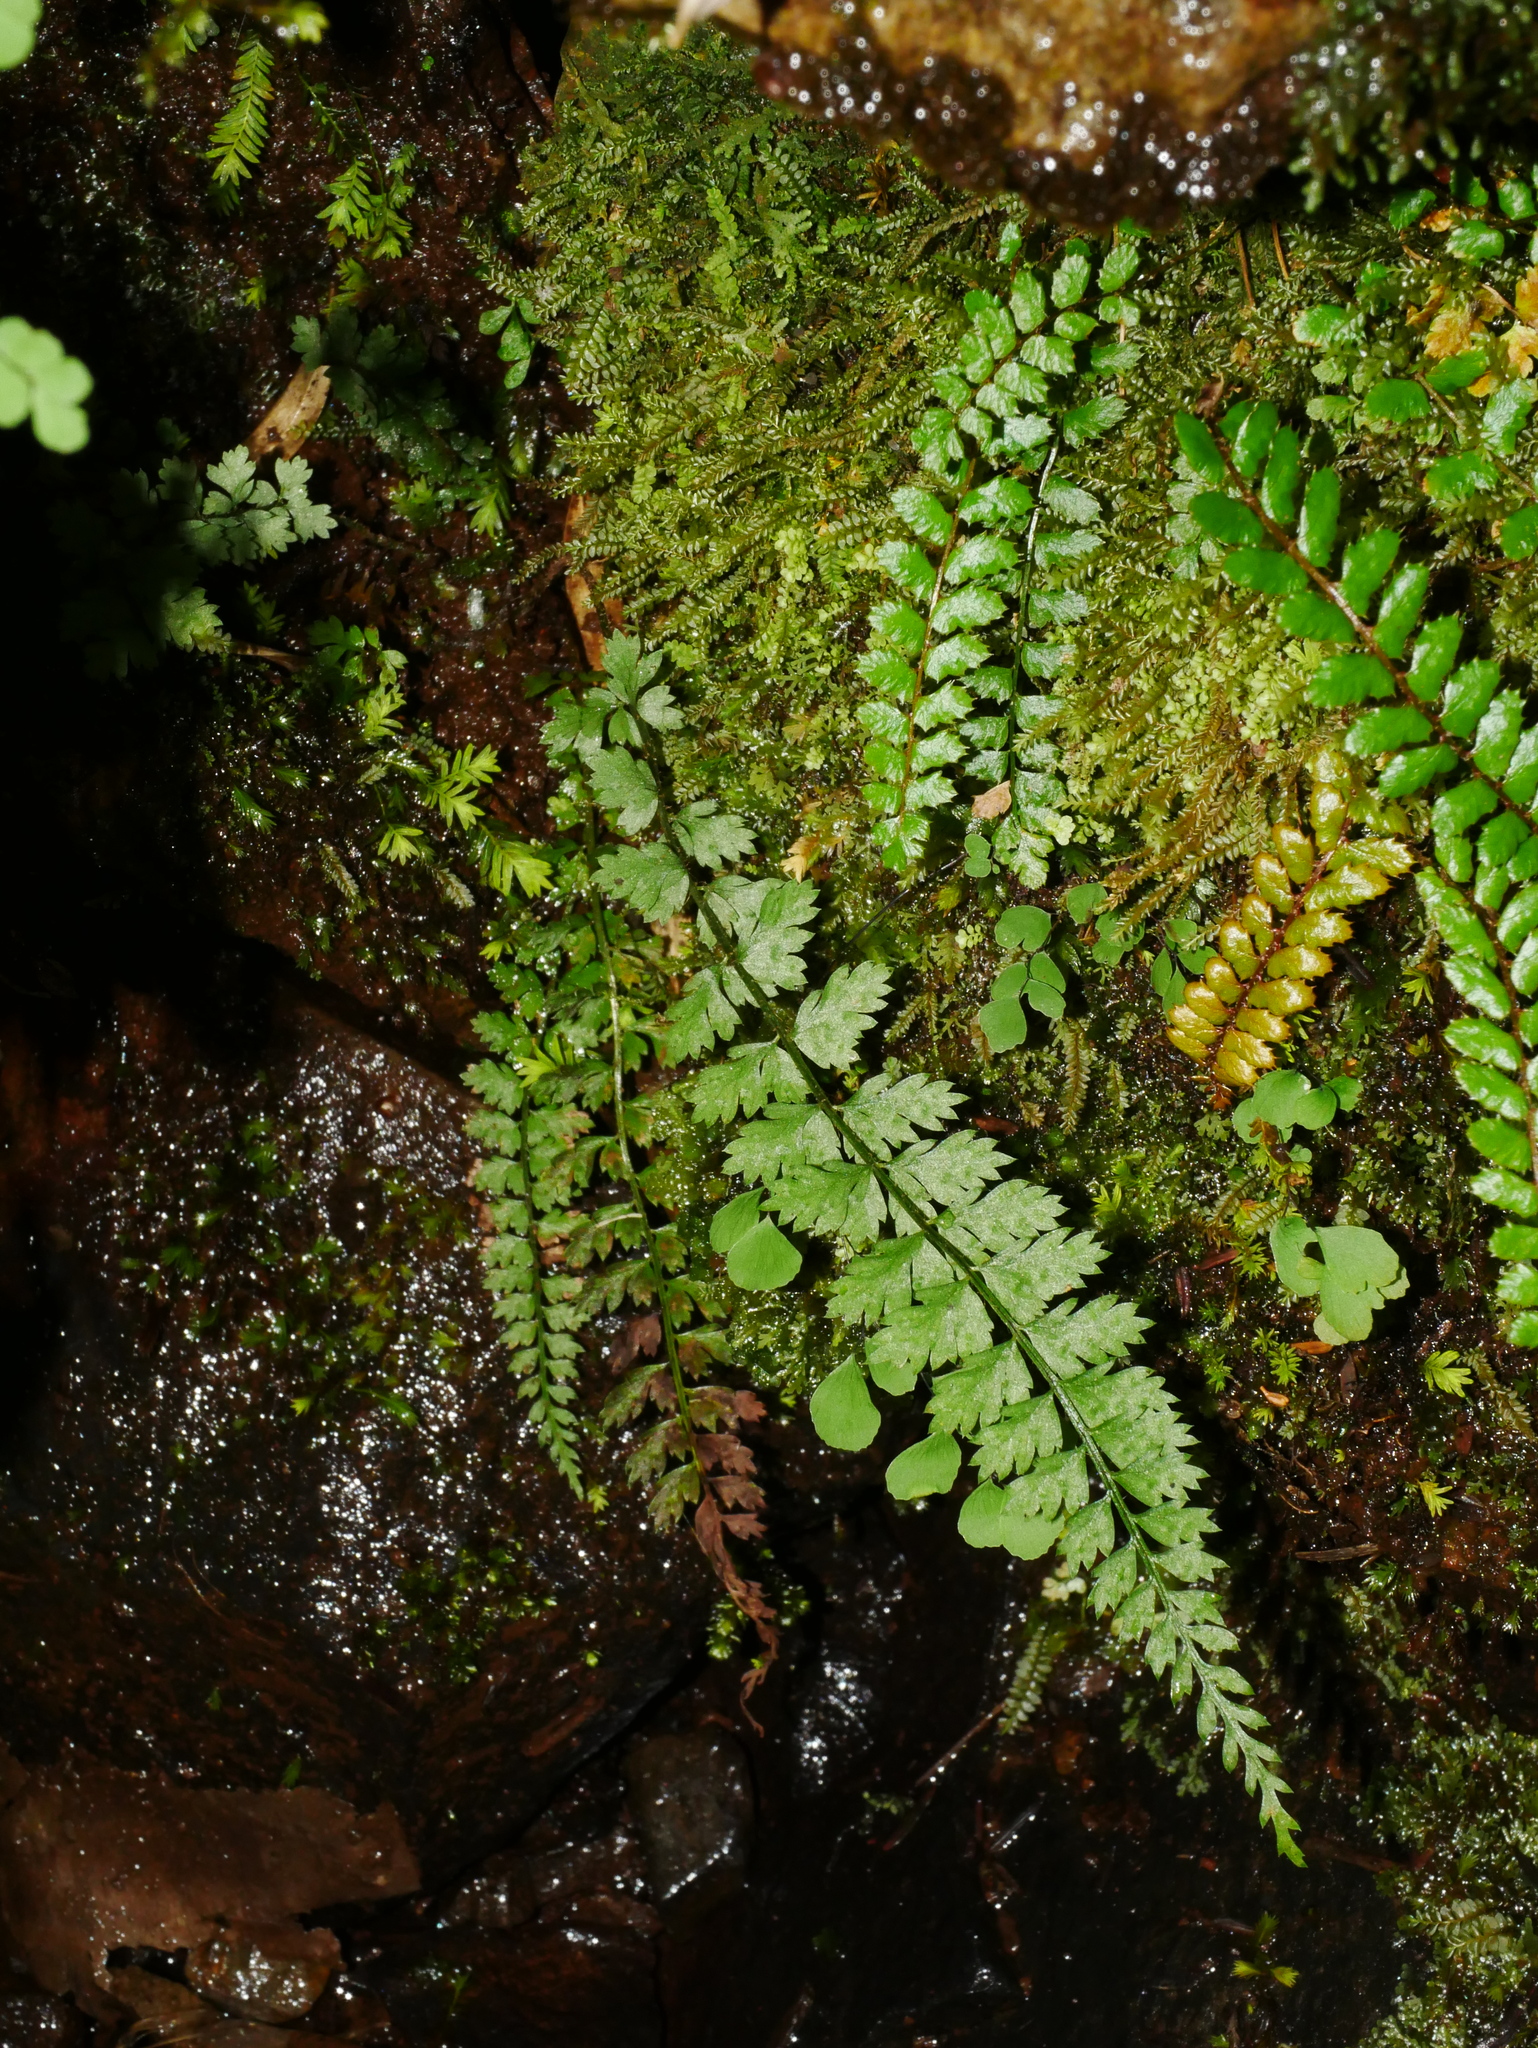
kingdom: Plantae
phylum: Tracheophyta
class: Polypodiopsida
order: Polypodiales
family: Dryopteridaceae
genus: Polystichum
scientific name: Polystichum thomsonii
